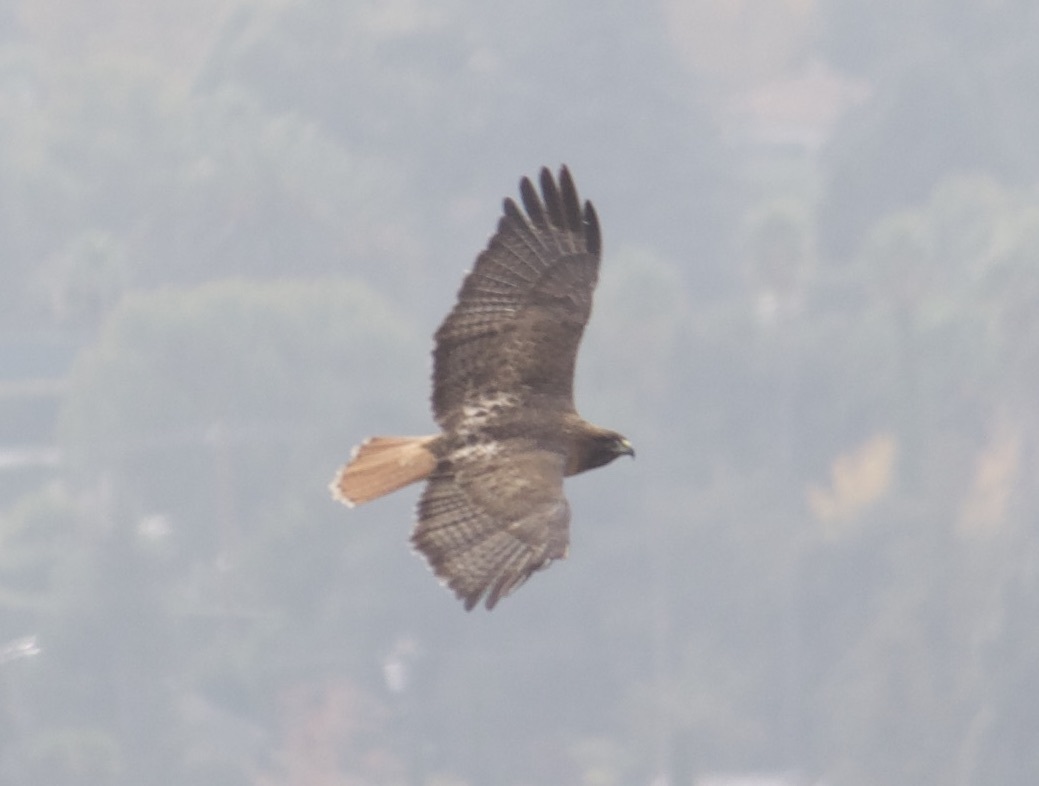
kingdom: Animalia
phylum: Chordata
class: Aves
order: Accipitriformes
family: Accipitridae
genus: Buteo
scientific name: Buteo jamaicensis
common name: Red-tailed hawk
